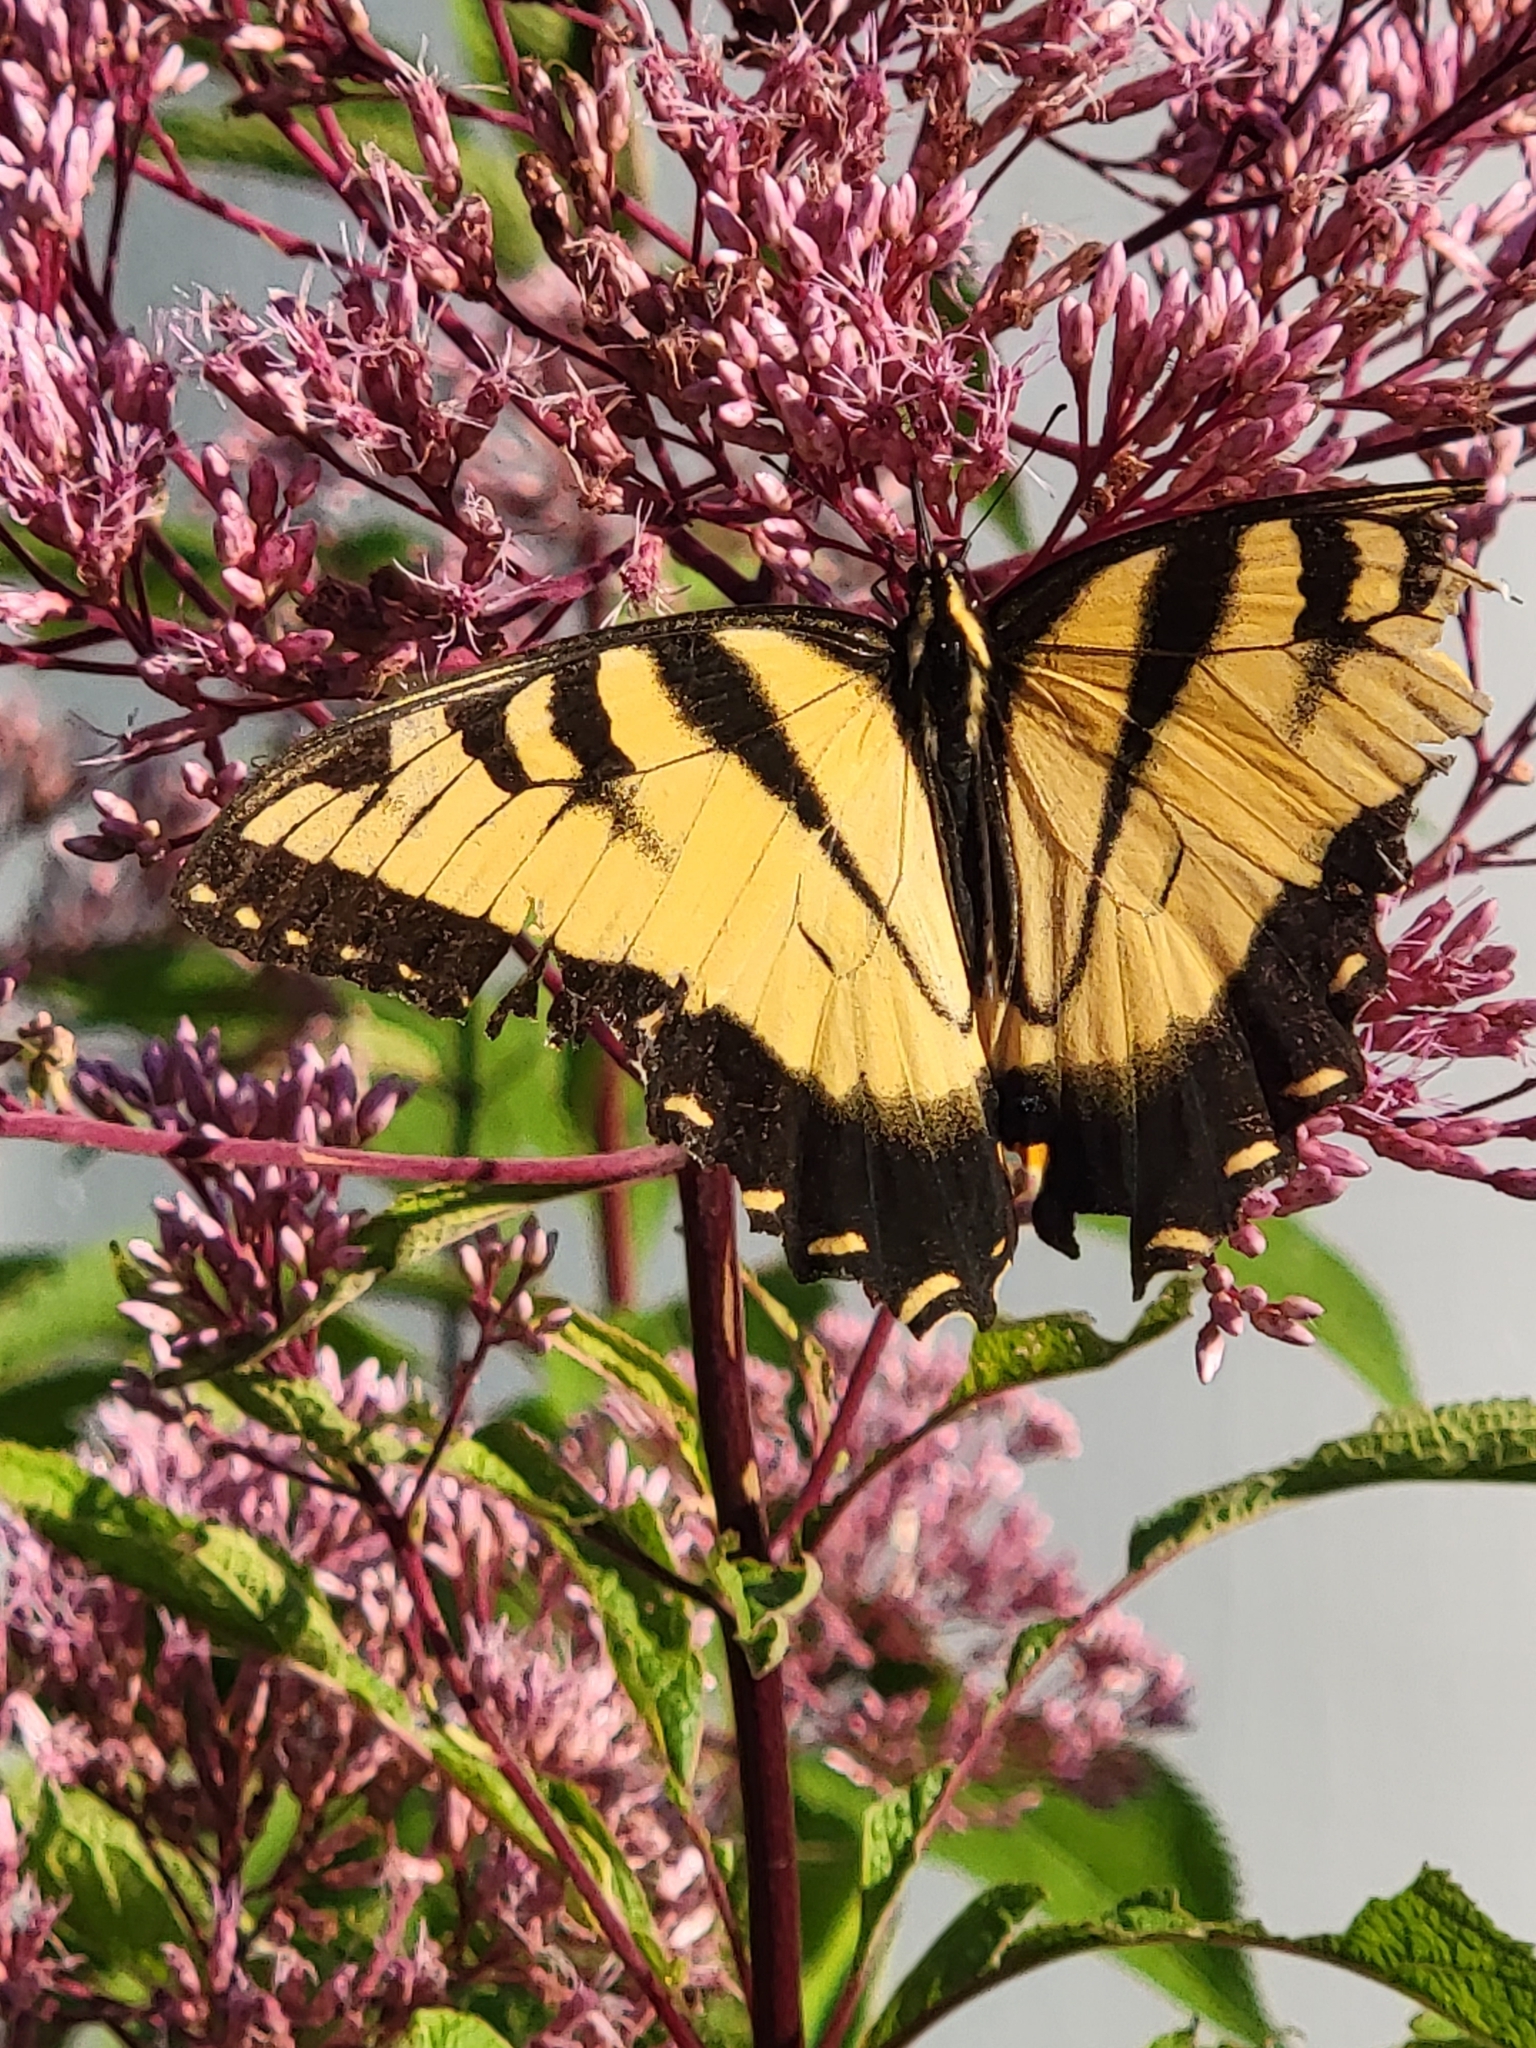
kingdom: Animalia
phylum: Arthropoda
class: Insecta
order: Lepidoptera
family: Papilionidae
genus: Papilio
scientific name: Papilio glaucus
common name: Tiger swallowtail
